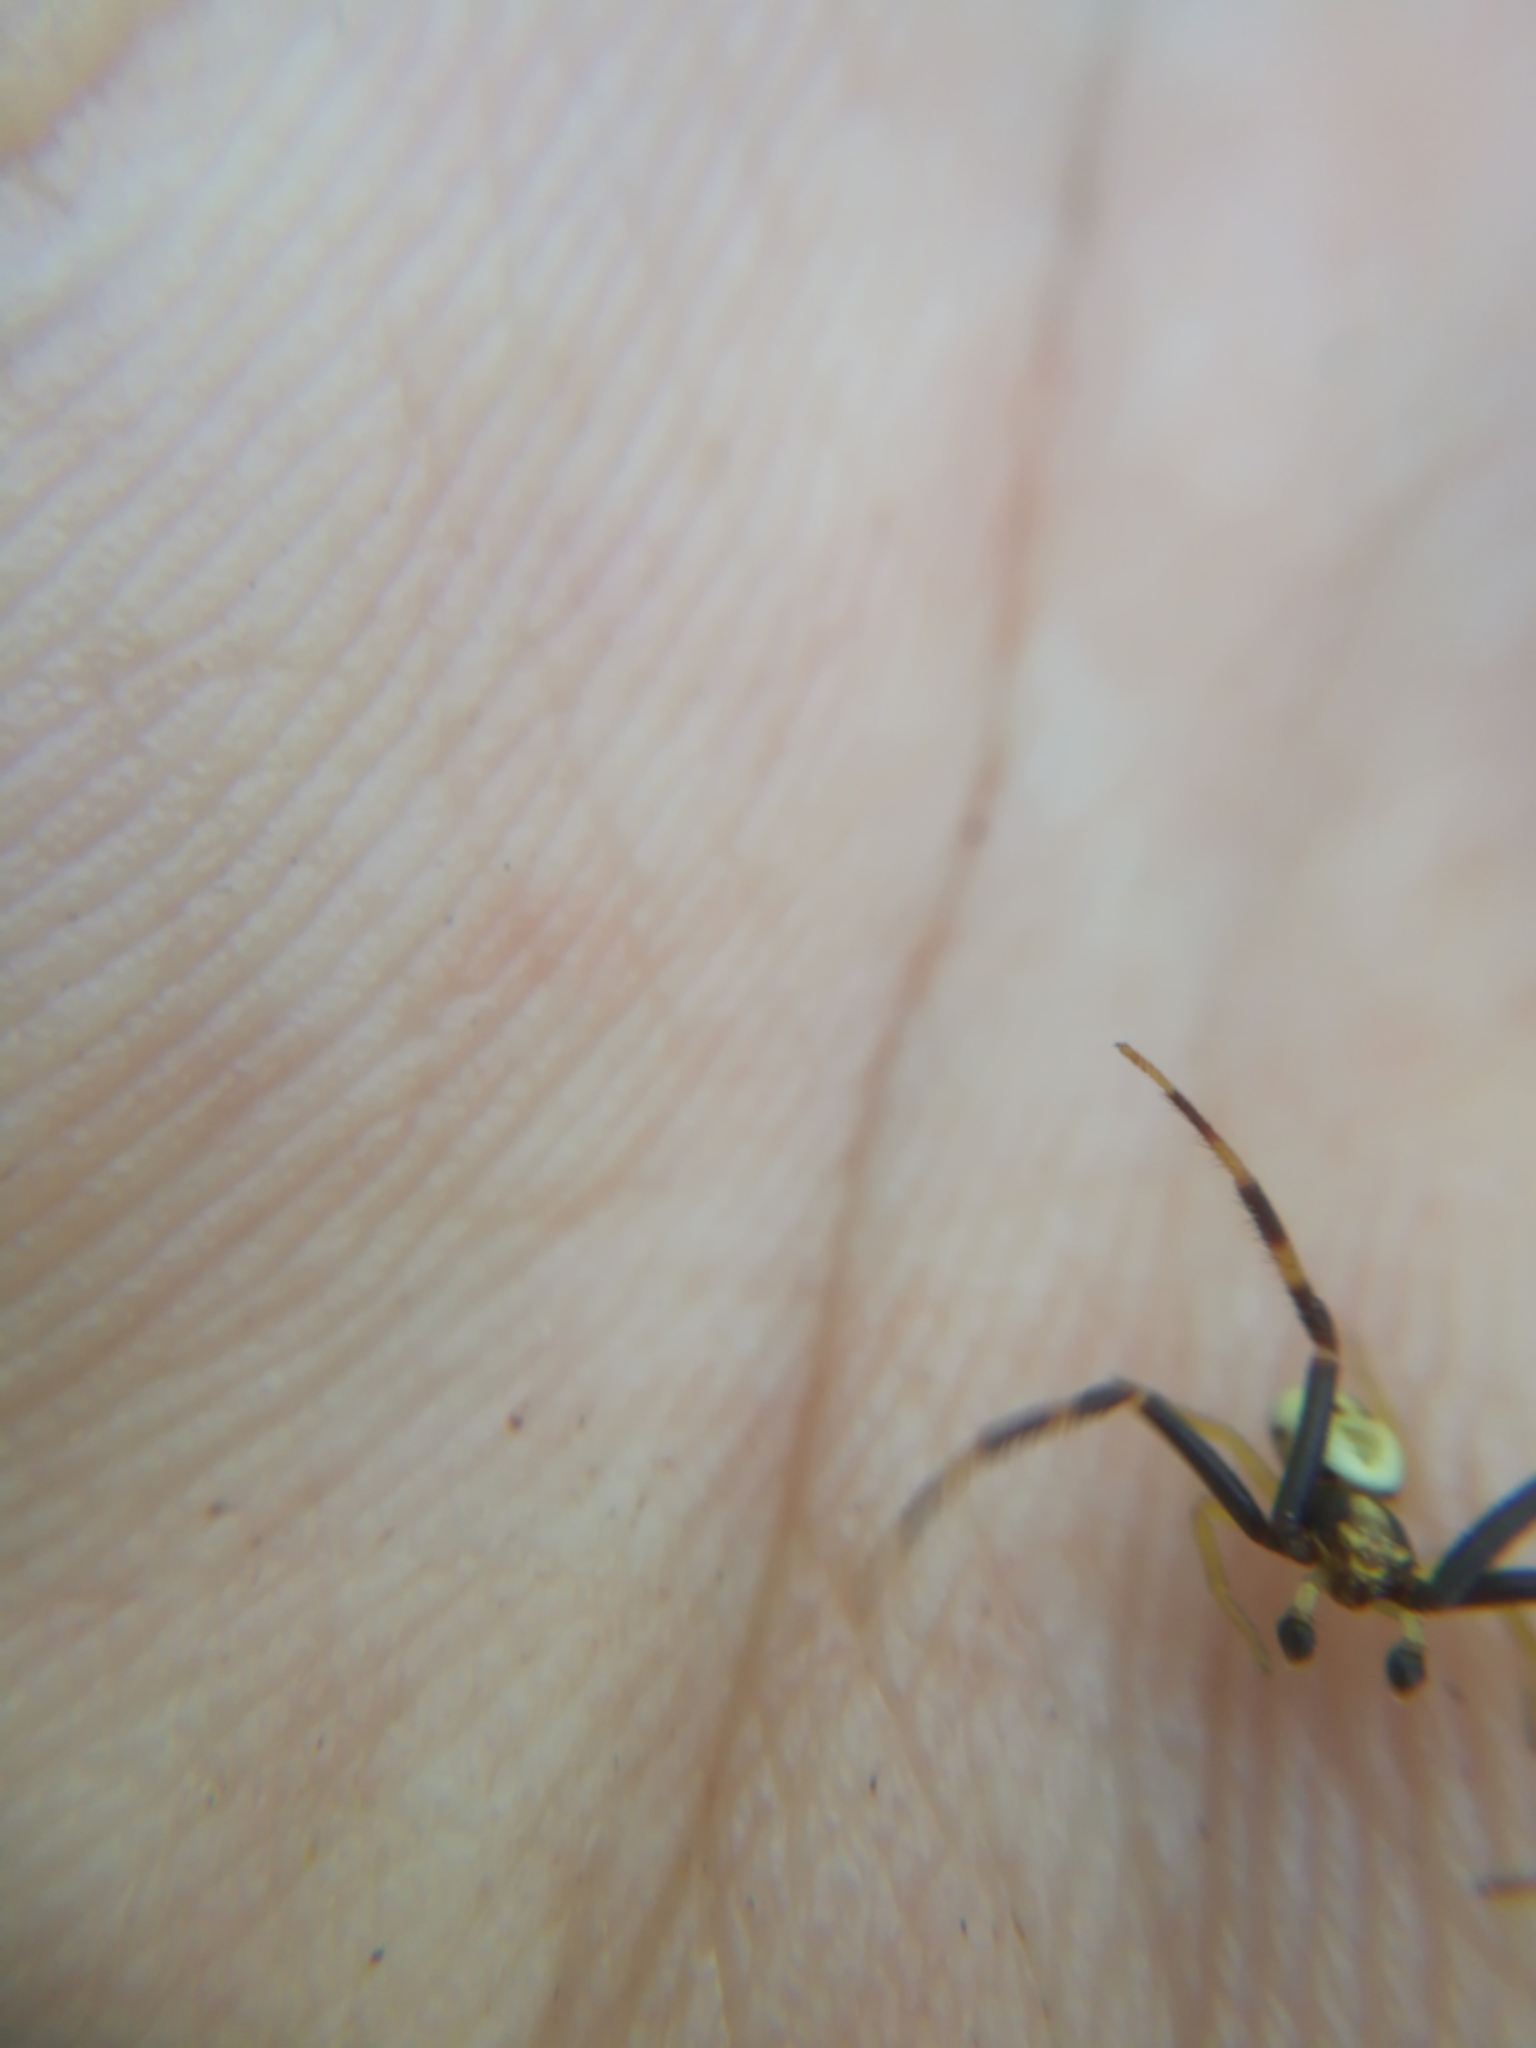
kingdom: Animalia
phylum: Arthropoda
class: Arachnida
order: Araneae
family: Thomisidae
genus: Misumena
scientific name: Misumena vatia
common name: Goldenrod crab spider
